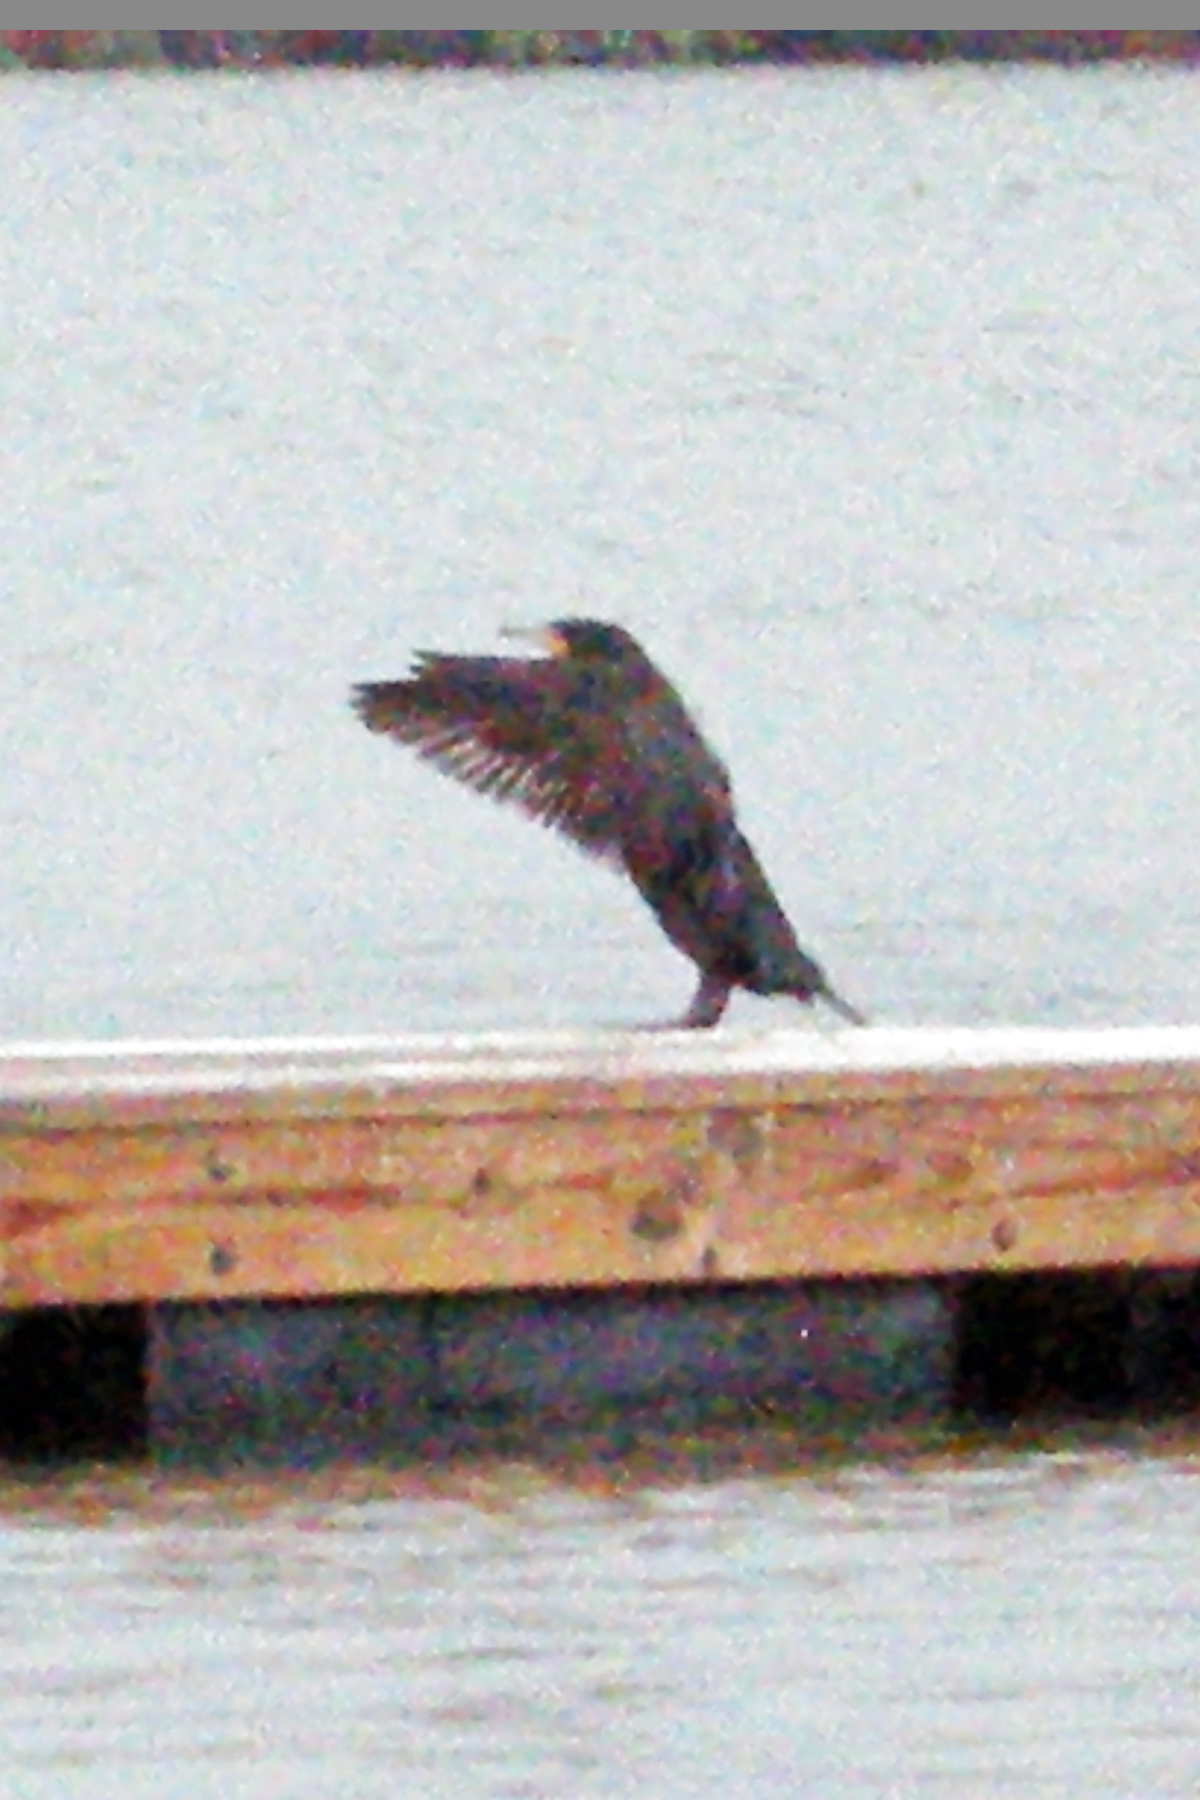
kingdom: Animalia
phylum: Chordata
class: Aves
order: Suliformes
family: Phalacrocoracidae
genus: Phalacrocorax
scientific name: Phalacrocorax auritus
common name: Double-crested cormorant
